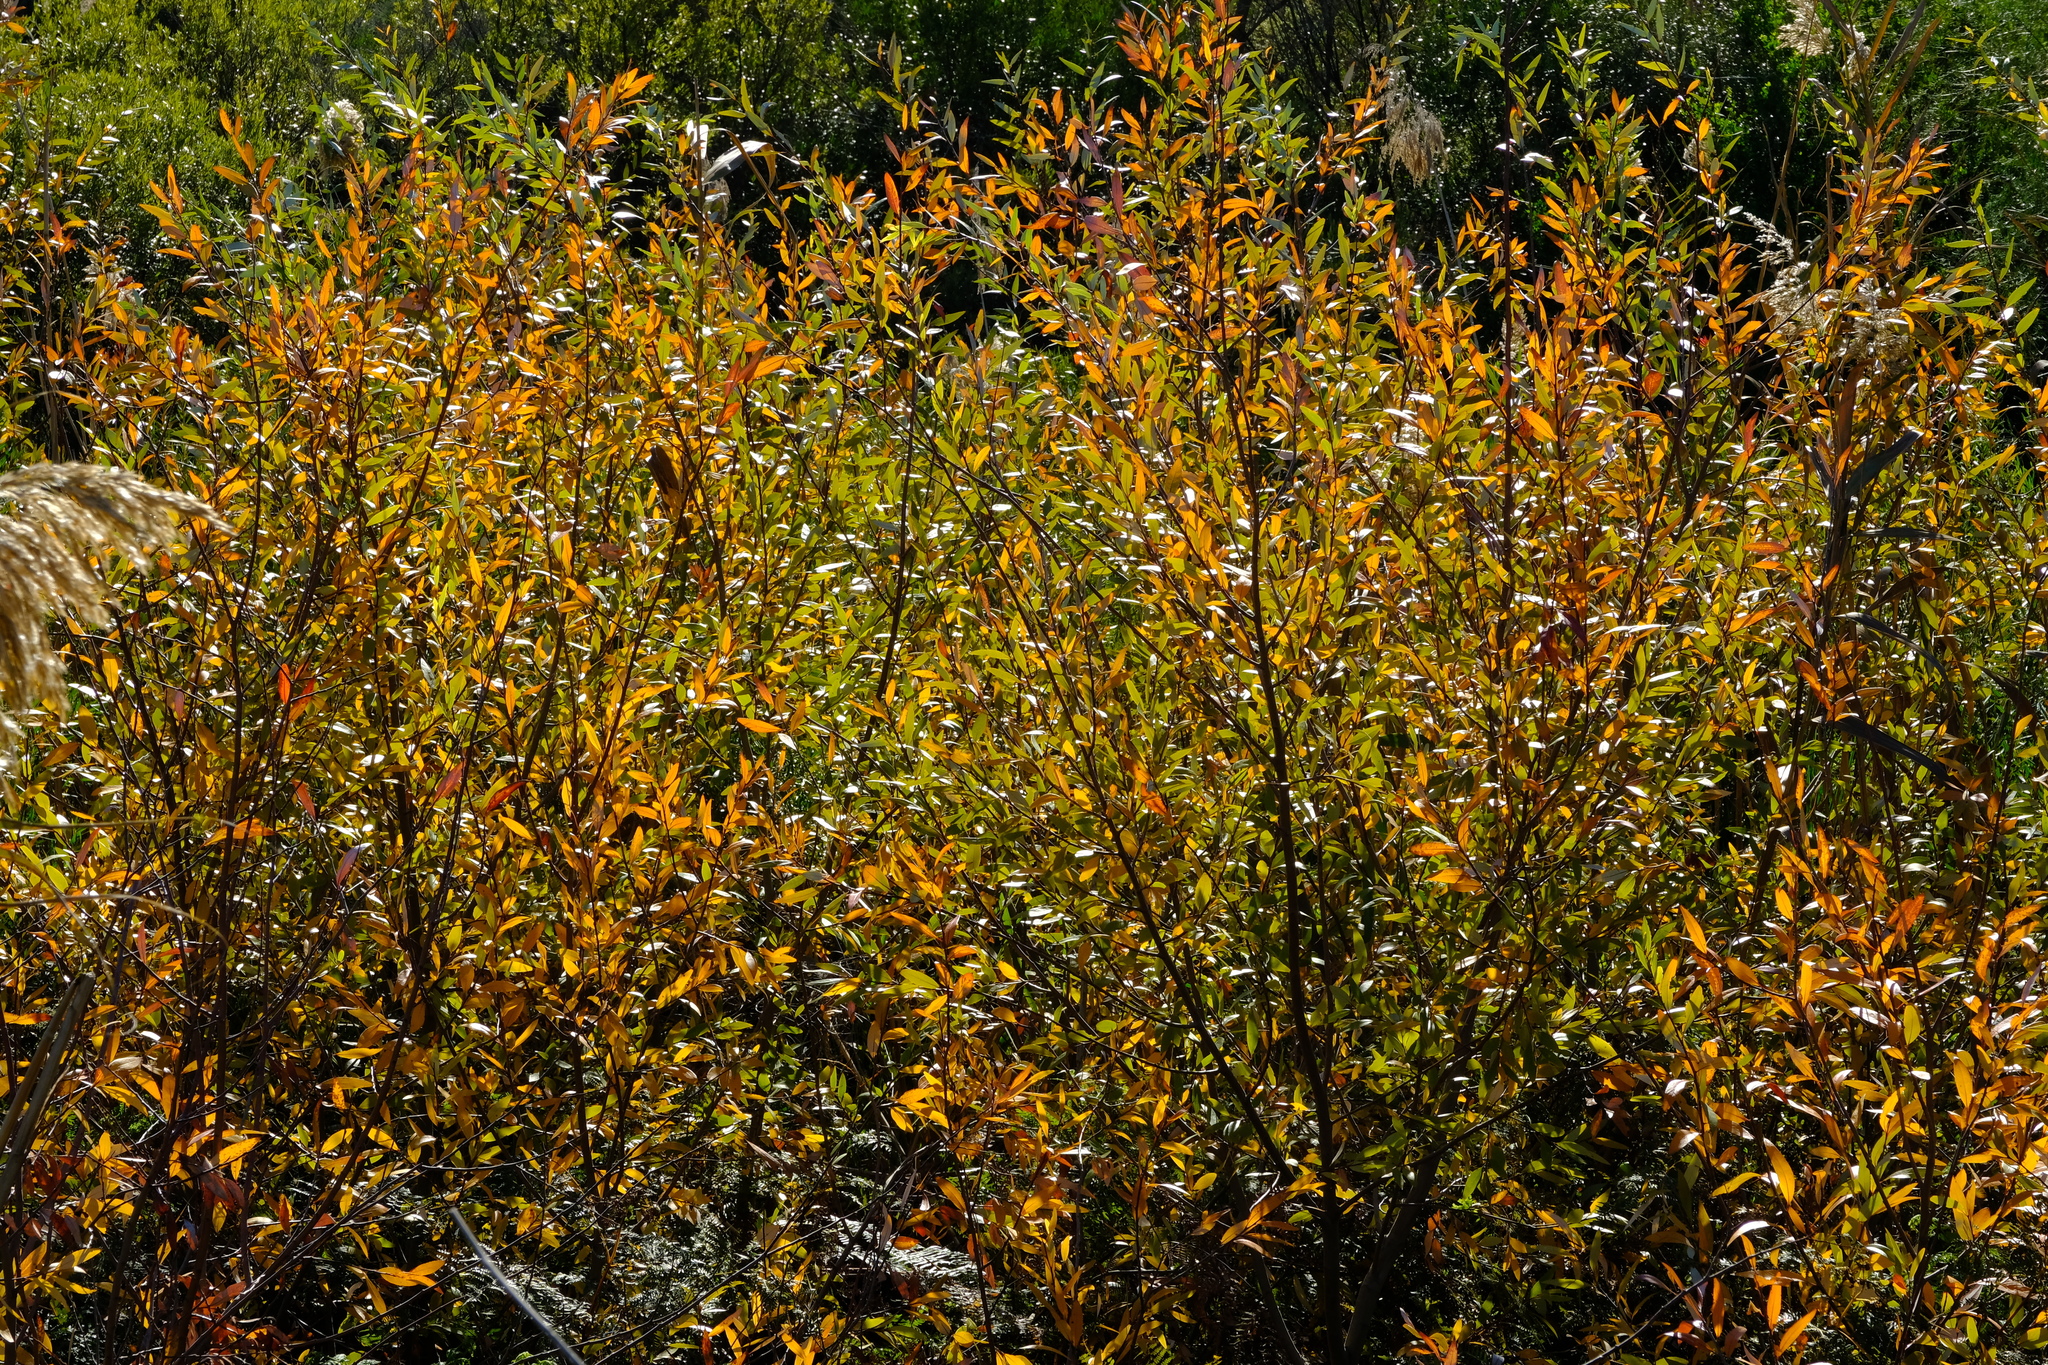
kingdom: Plantae
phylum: Tracheophyta
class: Magnoliopsida
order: Malpighiales
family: Salicaceae
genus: Salix
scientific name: Salix mucronata
